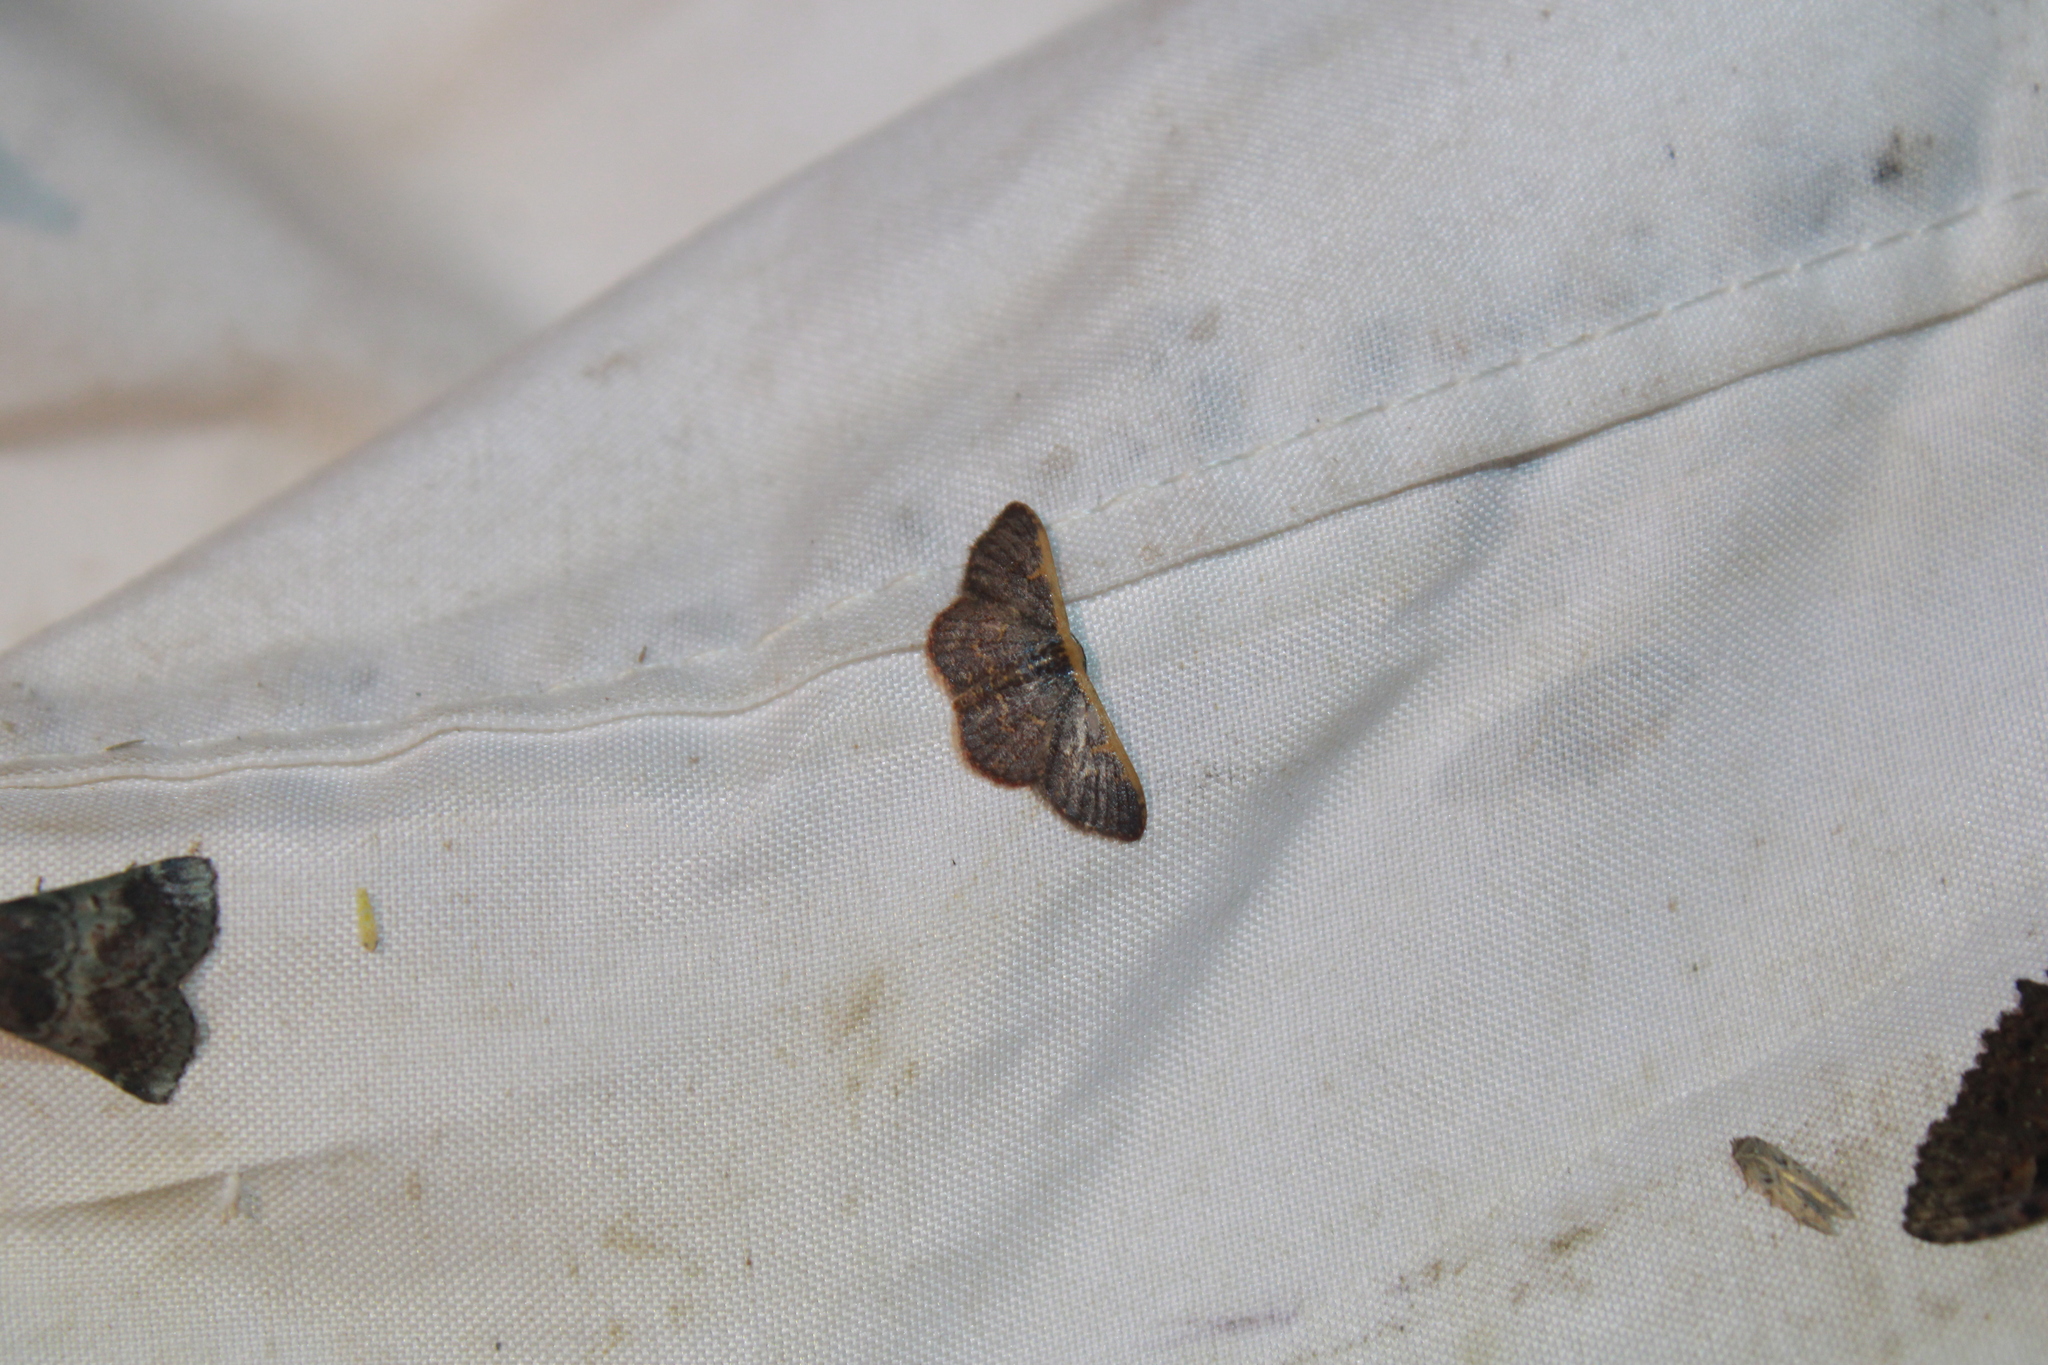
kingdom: Animalia
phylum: Arthropoda
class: Insecta
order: Lepidoptera
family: Geometridae
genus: Leptostales
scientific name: Leptostales crossii
